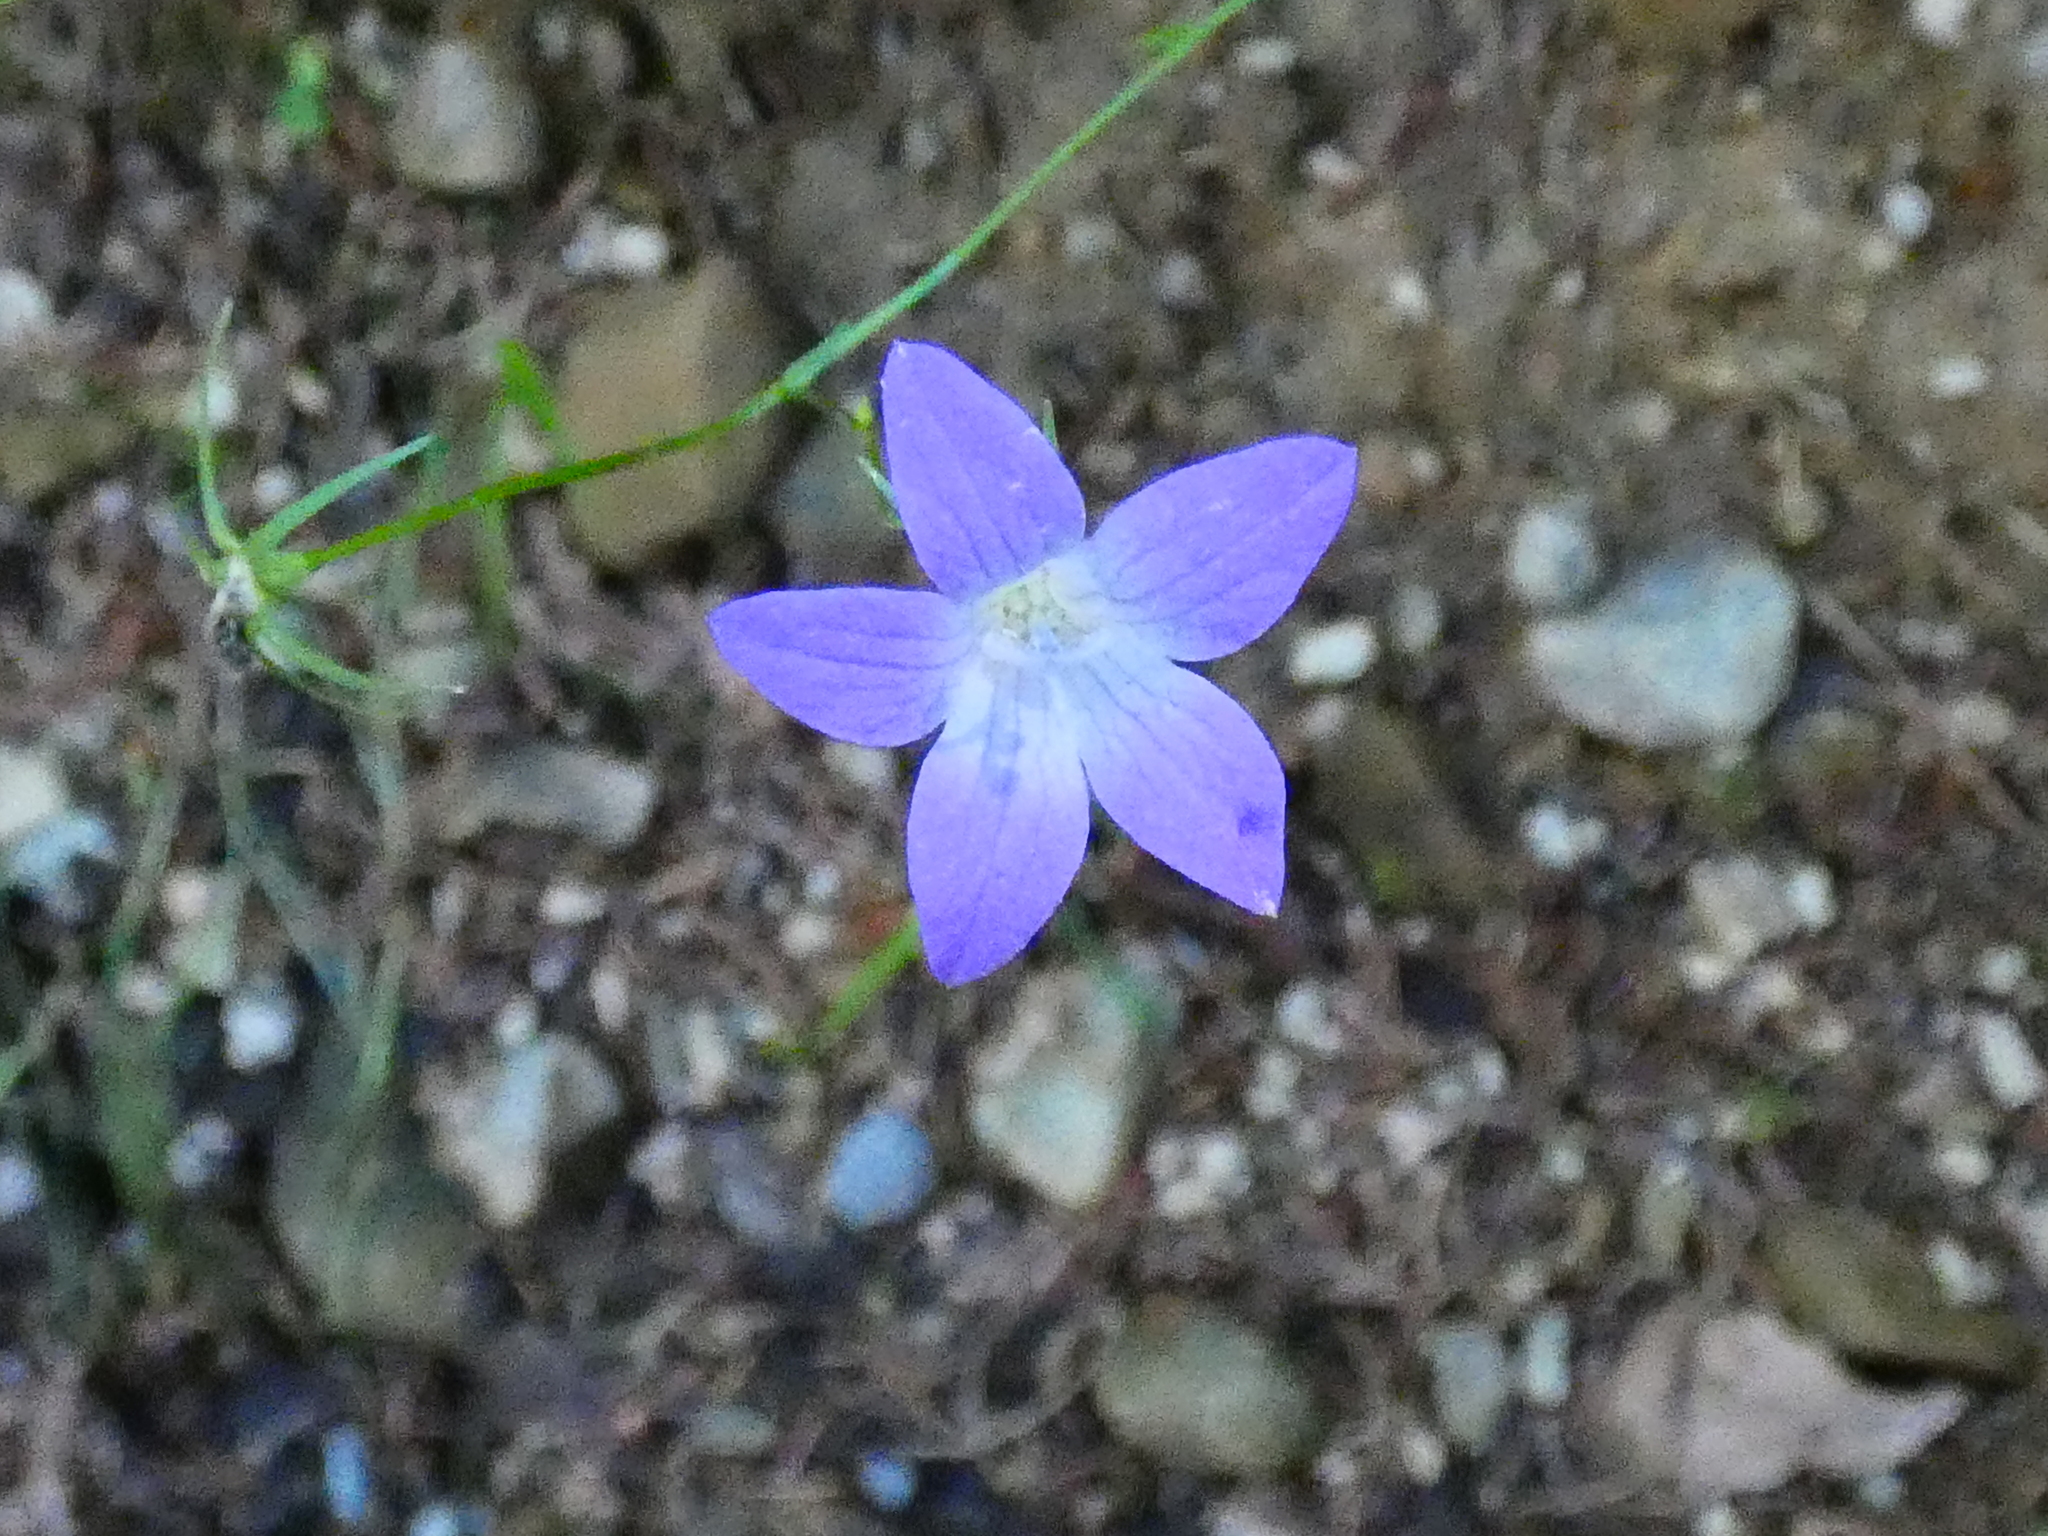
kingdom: Plantae
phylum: Tracheophyta
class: Magnoliopsida
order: Asterales
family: Campanulaceae
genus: Campanula
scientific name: Campanula patula
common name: Spreading bellflower
